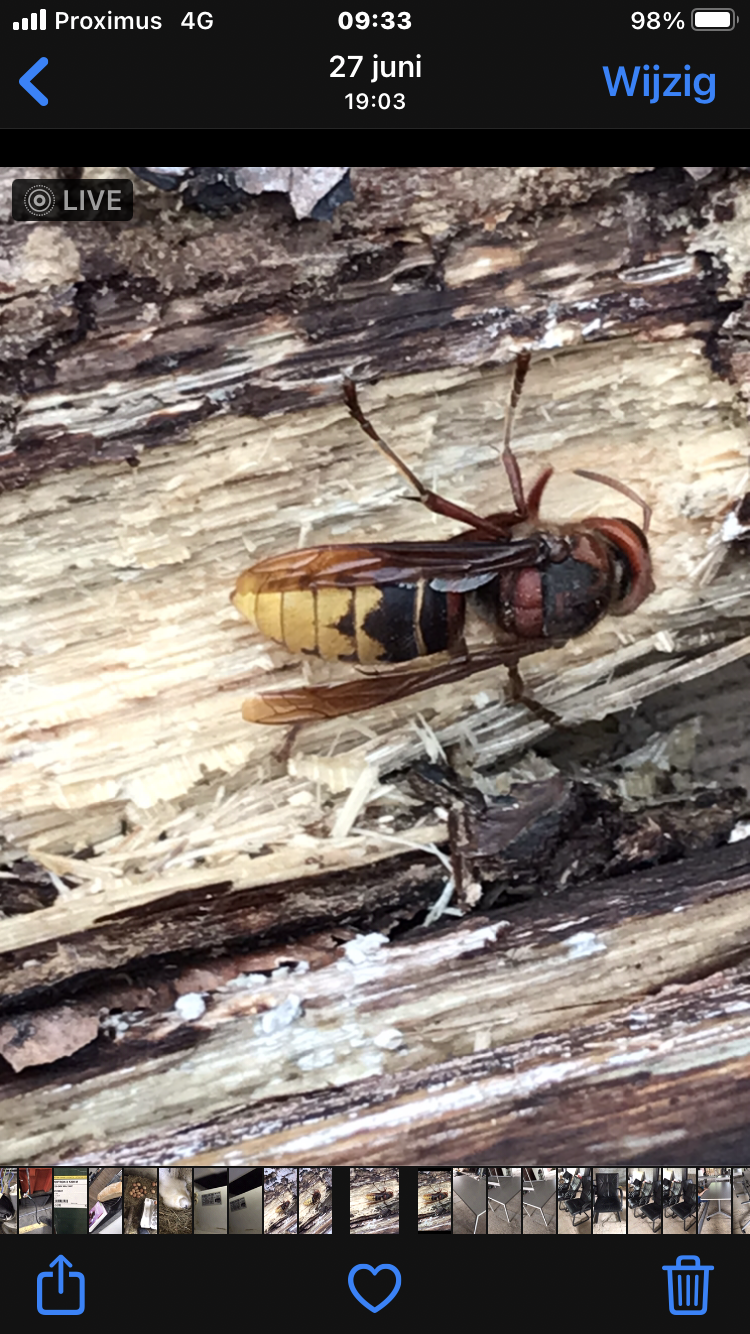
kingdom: Animalia
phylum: Arthropoda
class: Insecta
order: Hymenoptera
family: Vespidae
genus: Vespa
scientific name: Vespa crabro
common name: Hornet
